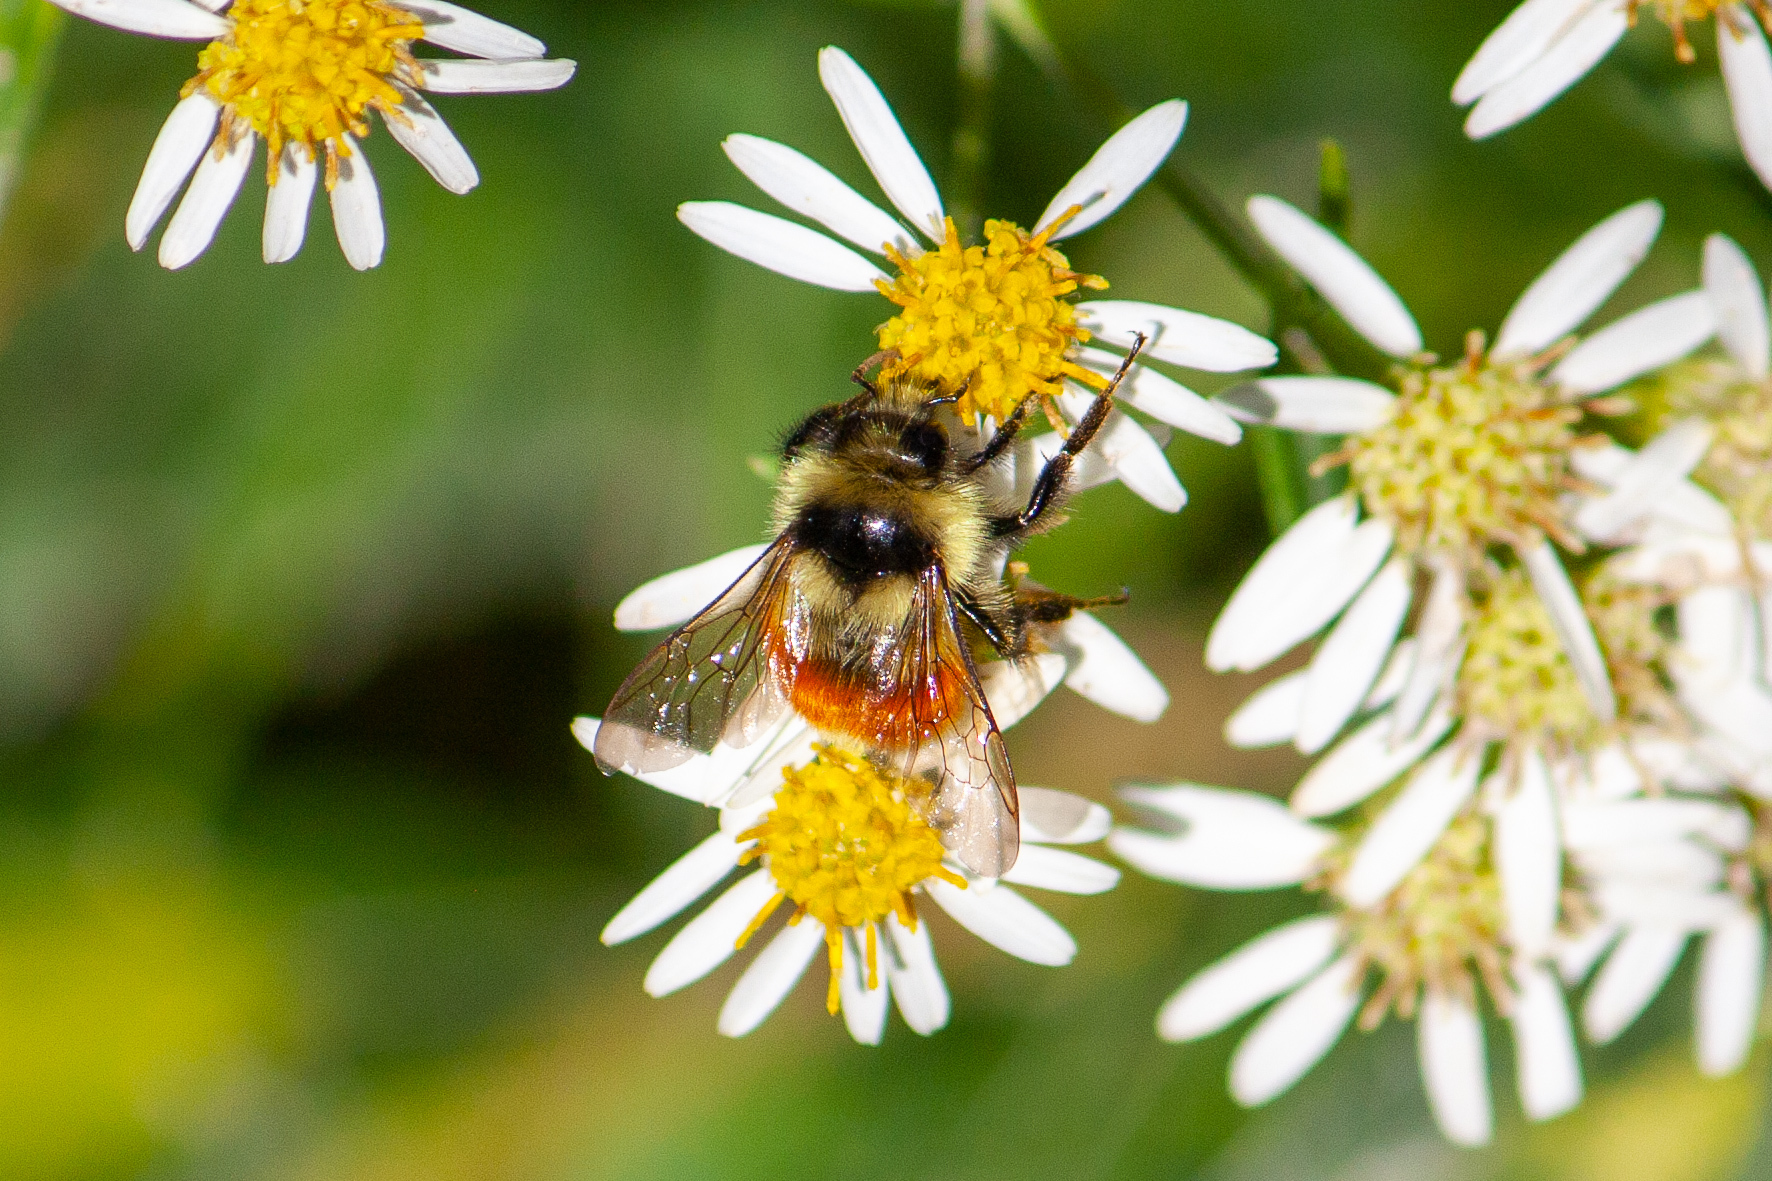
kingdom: Animalia
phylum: Arthropoda
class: Insecta
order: Hymenoptera
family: Apidae
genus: Bombus
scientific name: Bombus ternarius
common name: Tri-colored bumble bee
